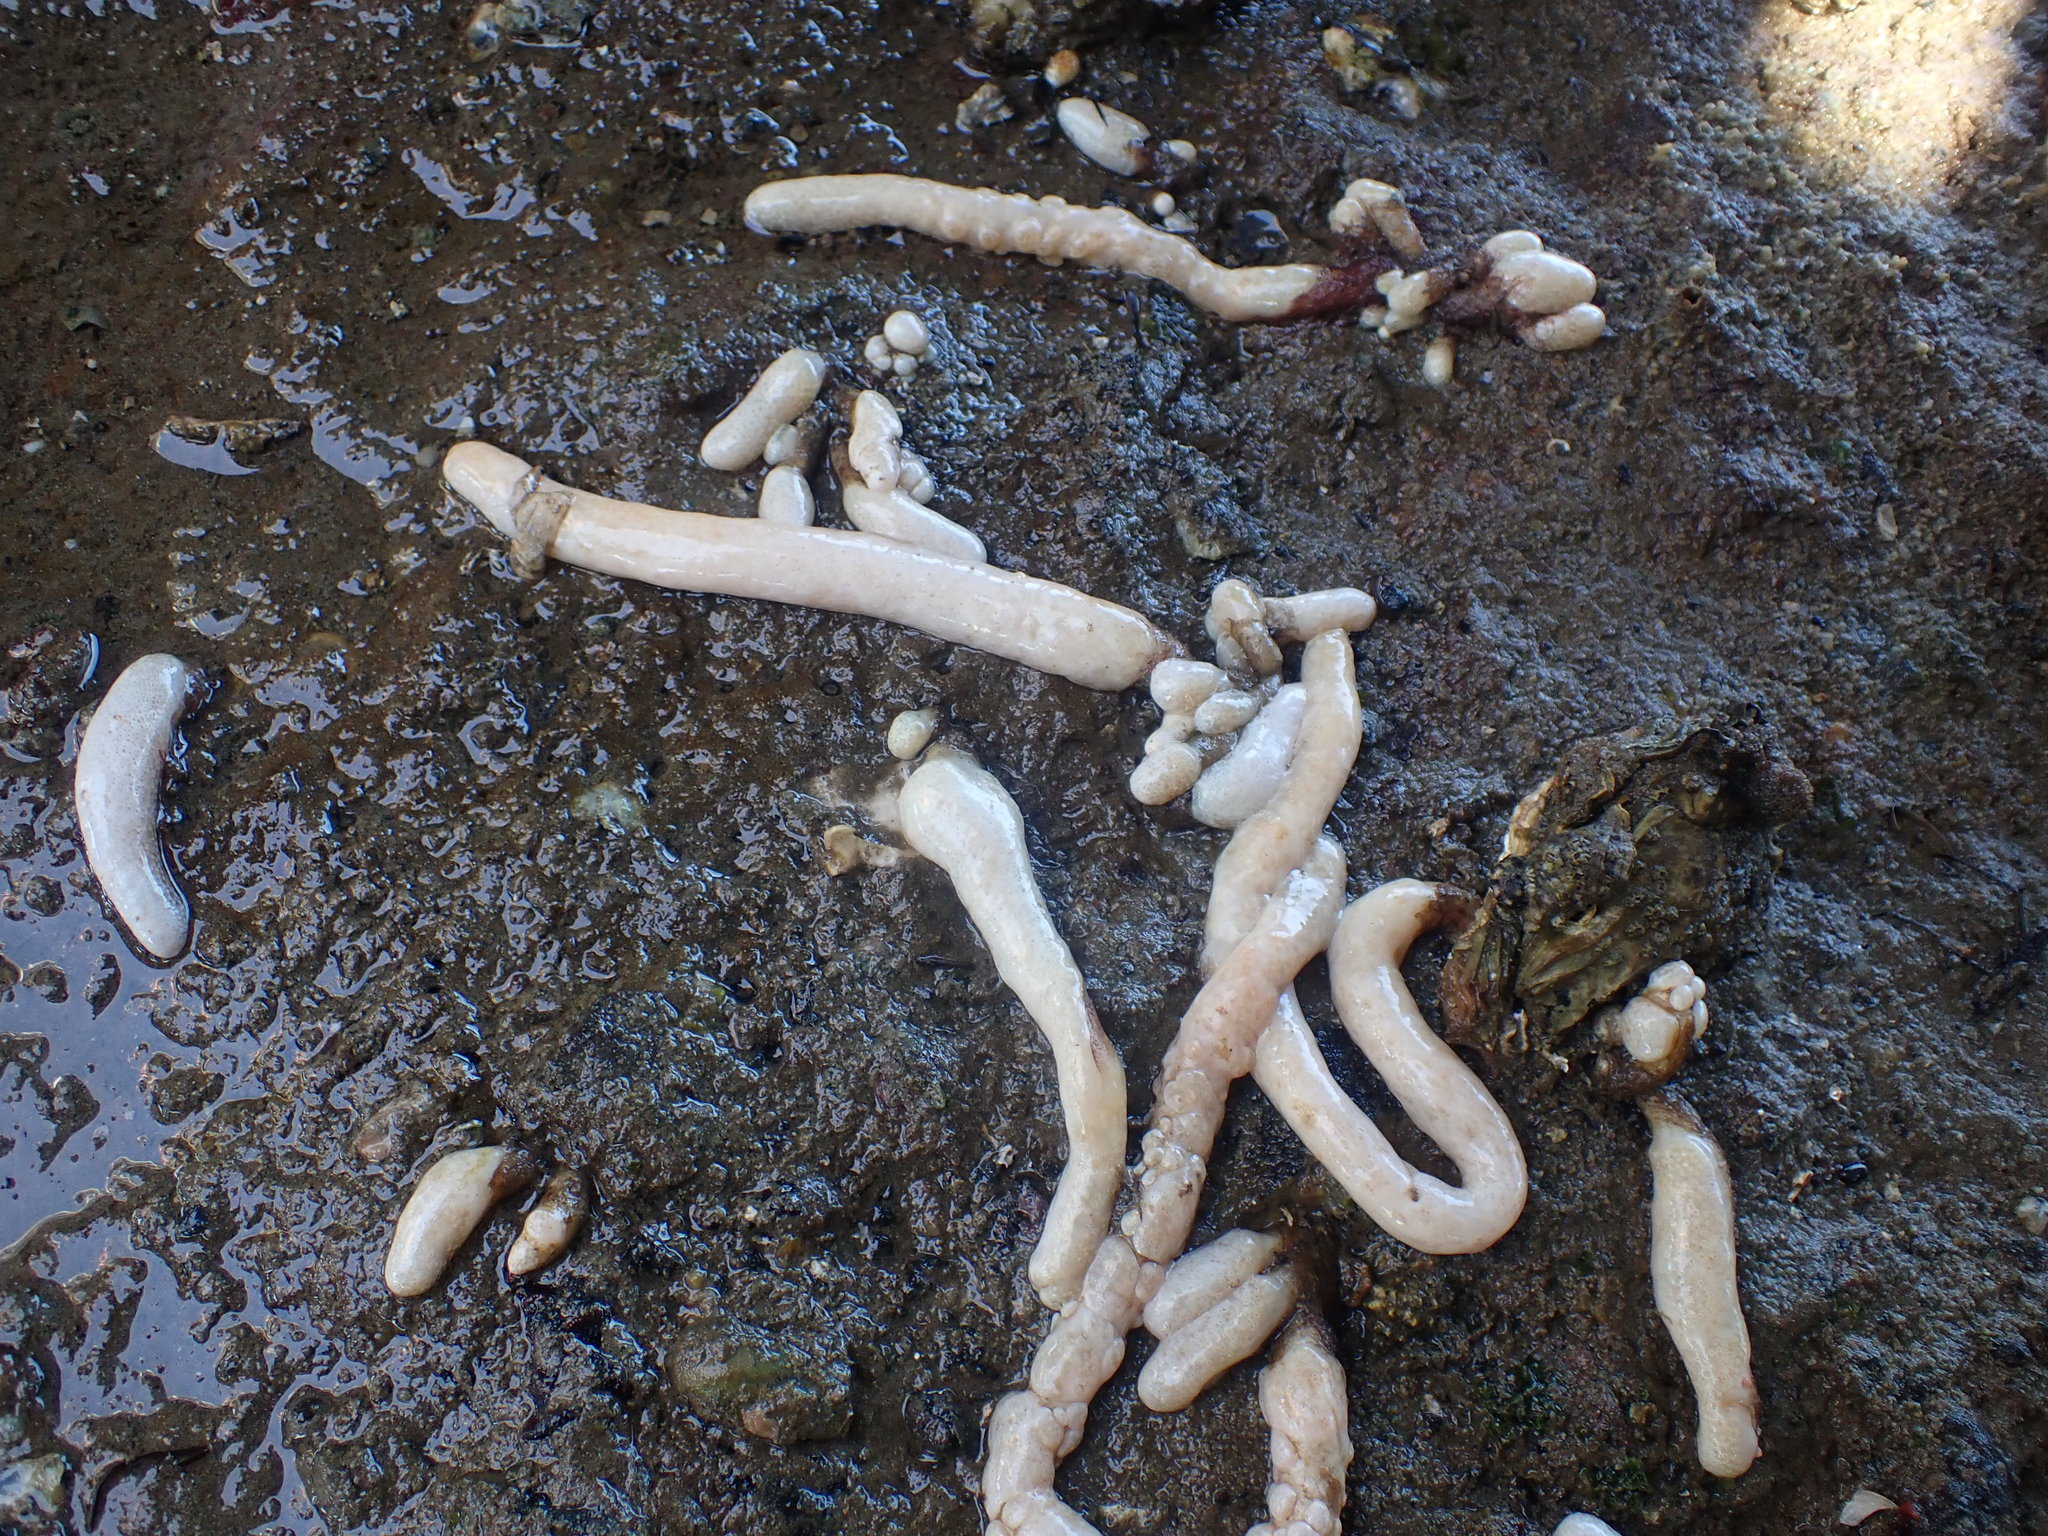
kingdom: Animalia
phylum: Chordata
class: Ascidiacea
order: Aplousobranchia
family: Polycitoridae
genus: Eudistoma
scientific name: Eudistoma elongatum
